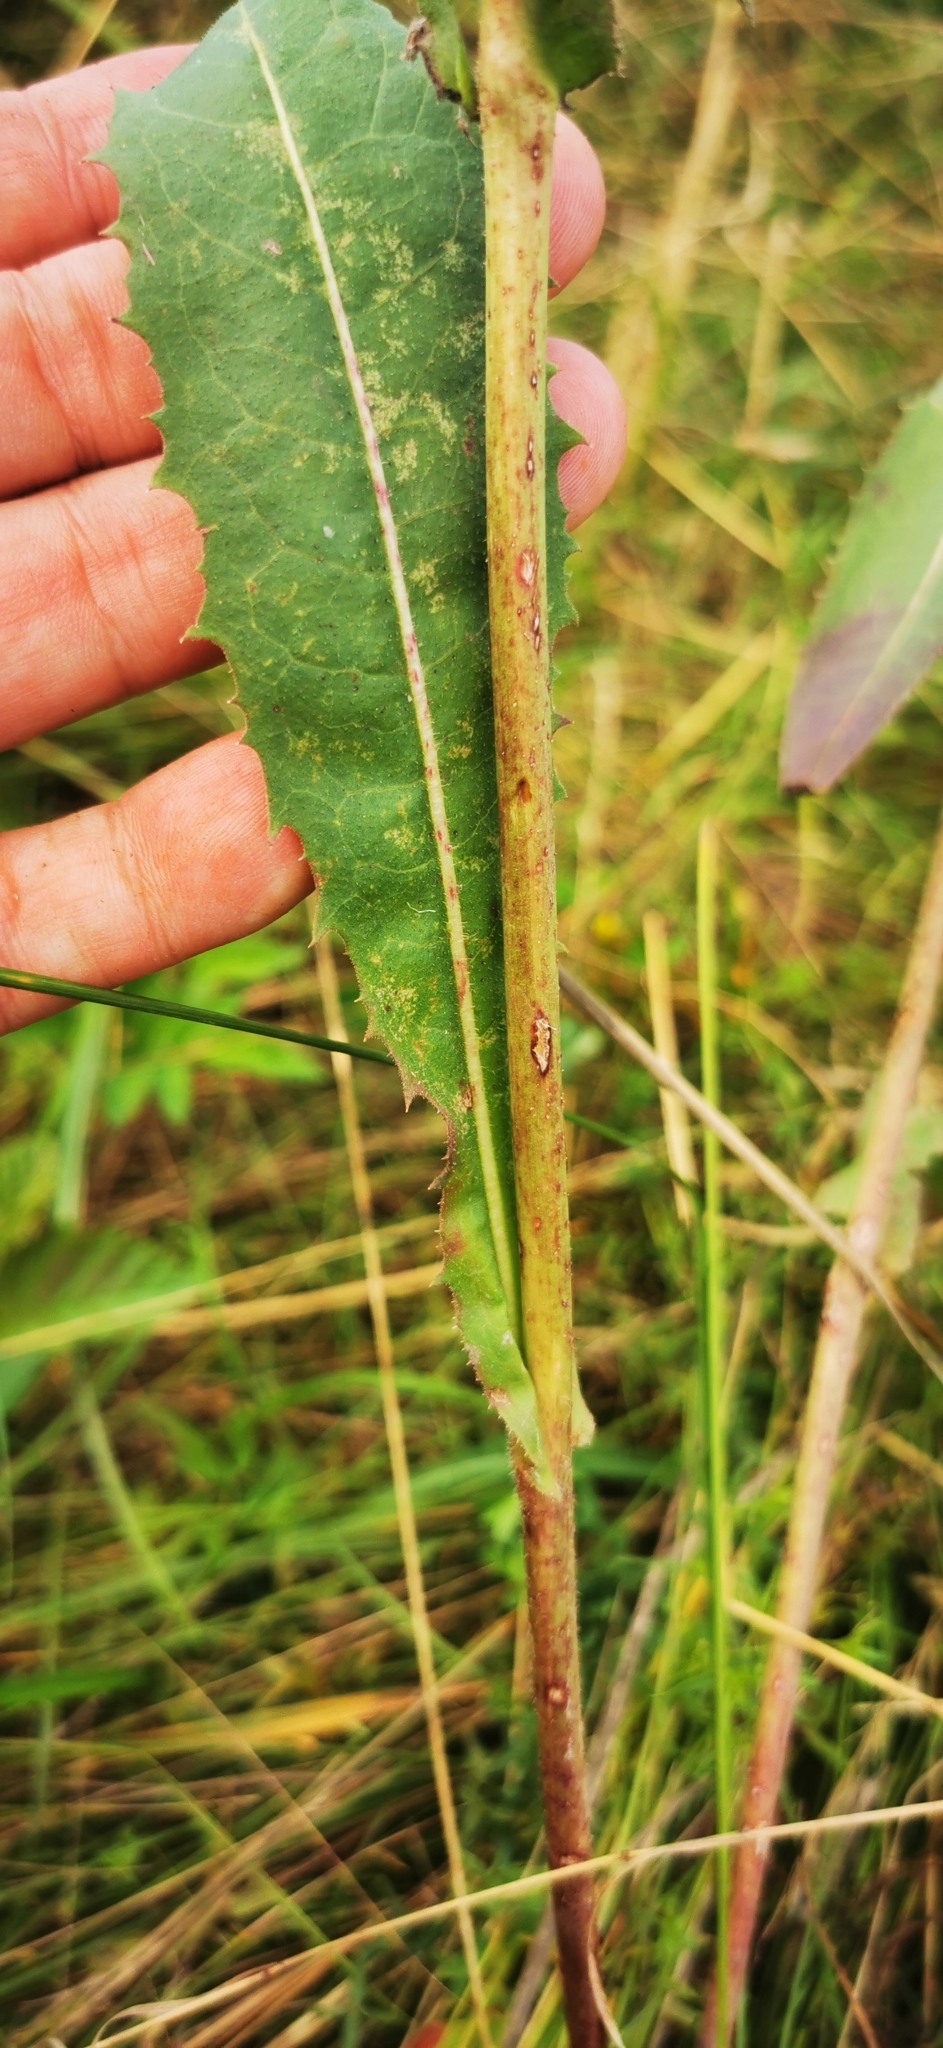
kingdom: Plantae
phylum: Tracheophyta
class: Magnoliopsida
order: Asterales
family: Asteraceae
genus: Cichorium
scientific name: Cichorium intybus
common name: Chicory
